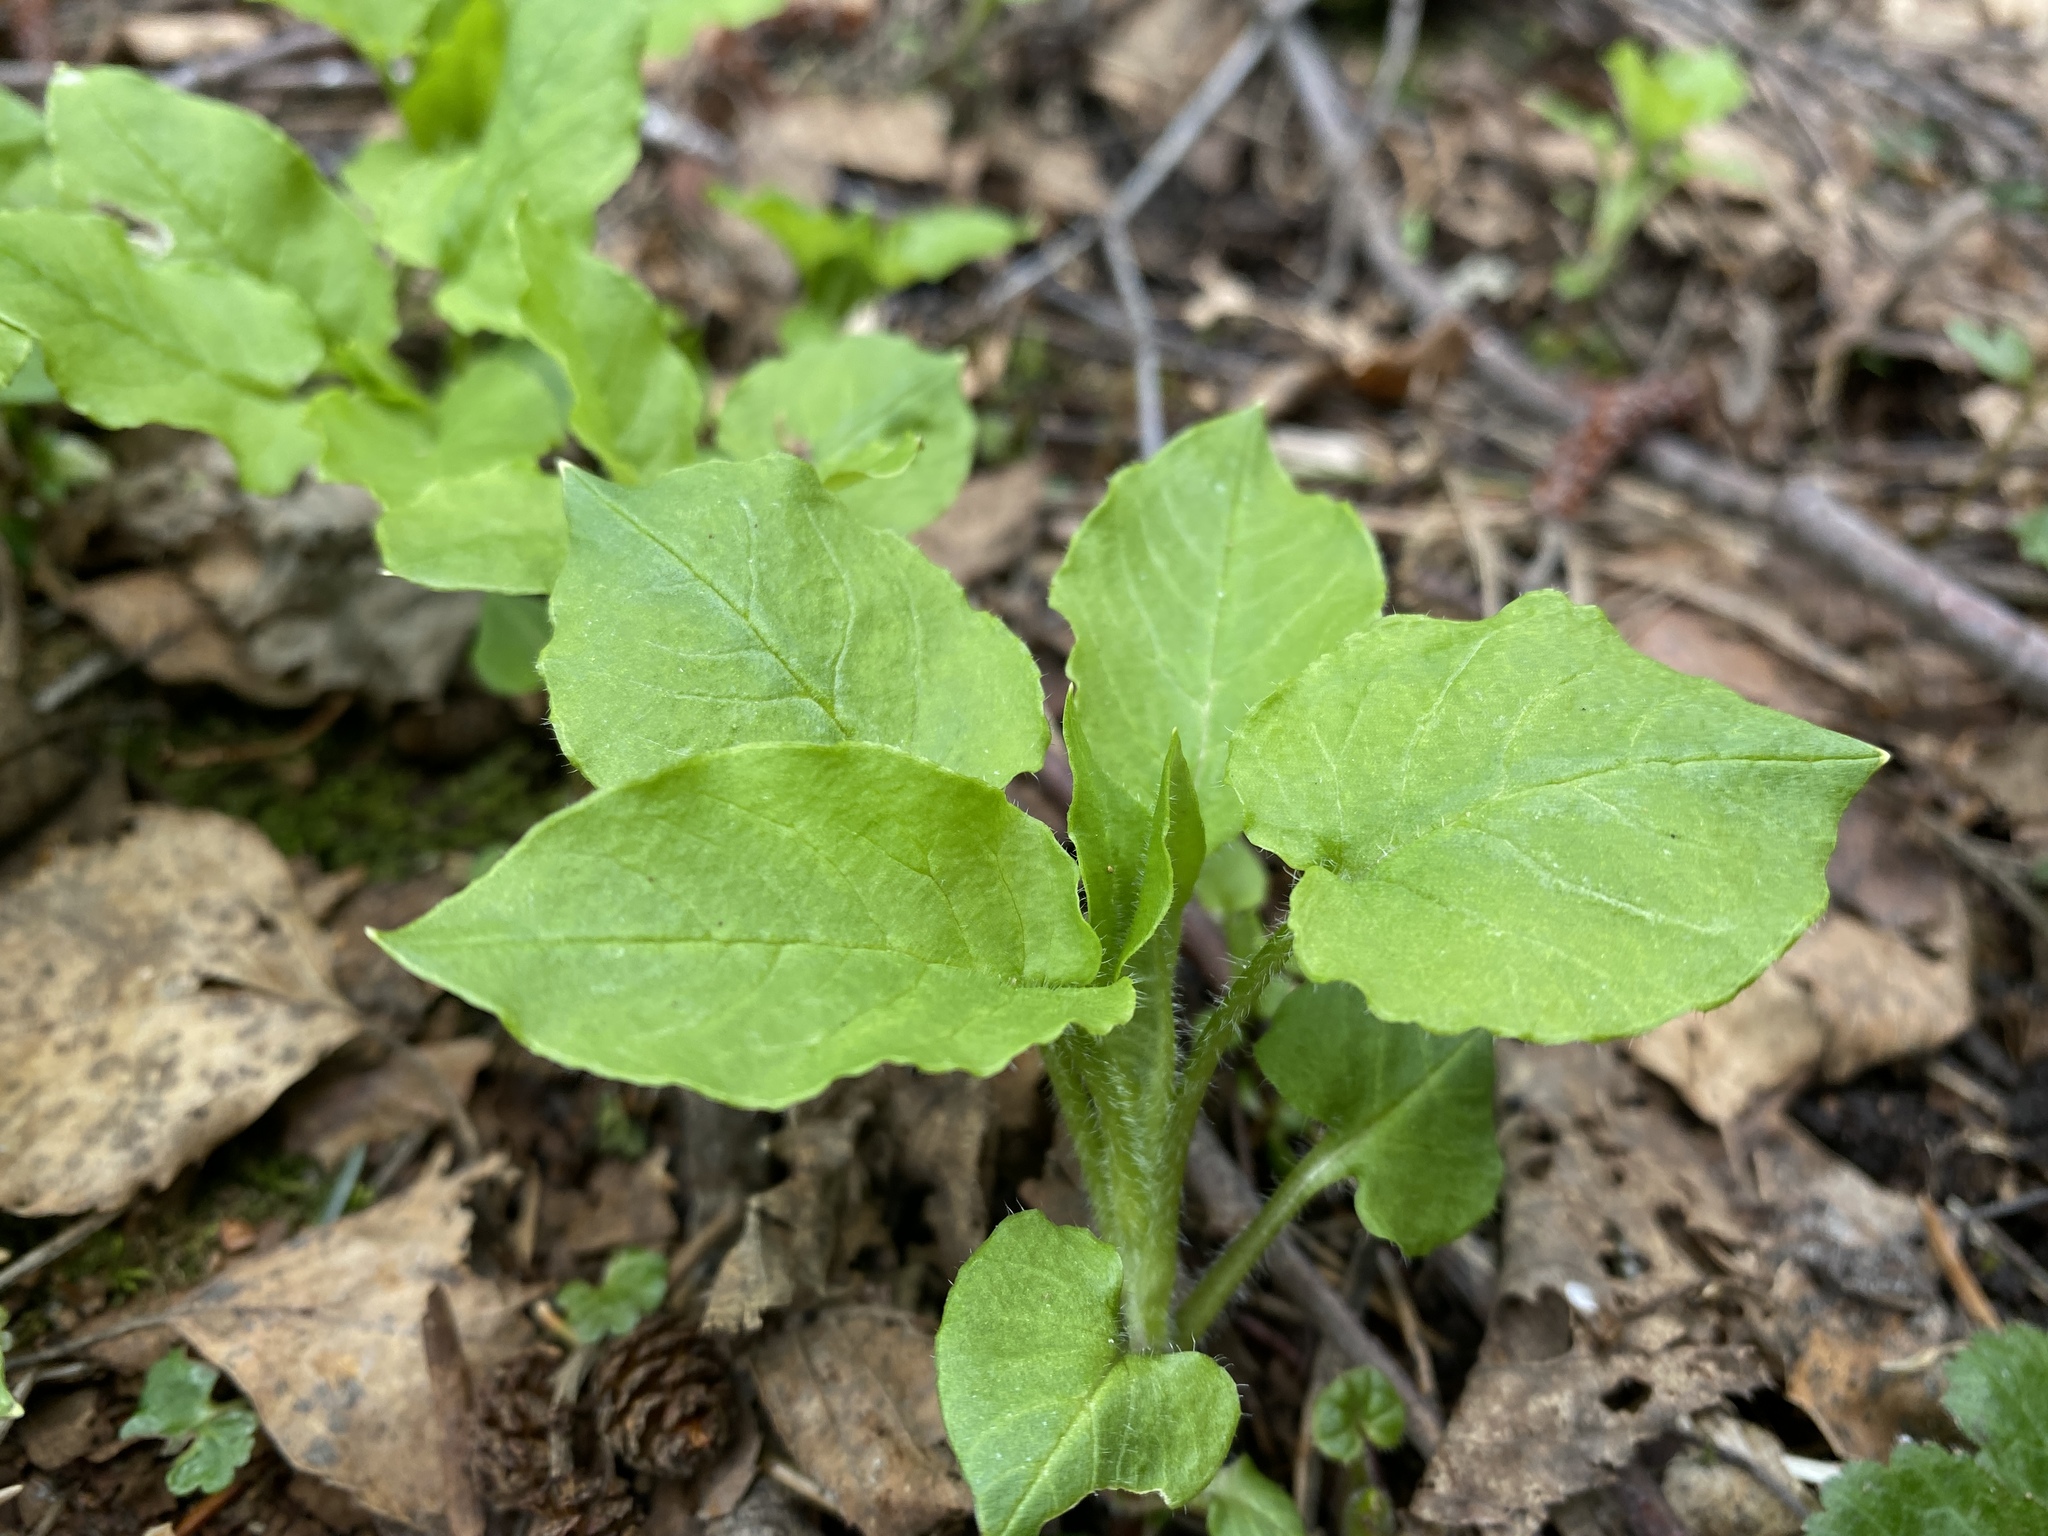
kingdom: Plantae
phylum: Tracheophyta
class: Magnoliopsida
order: Caryophyllales
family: Caryophyllaceae
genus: Stellaria
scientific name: Stellaria nemorum
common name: Wood stitchwort
